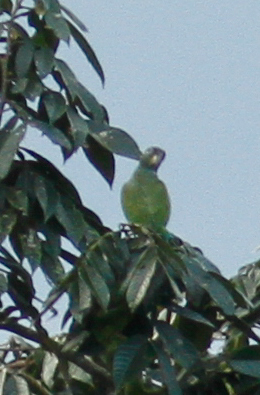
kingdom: Animalia
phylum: Chordata
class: Aves
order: Psittaciformes
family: Psittacidae
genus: Pionus
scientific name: Pionus menstruus
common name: Blue-headed parrot
